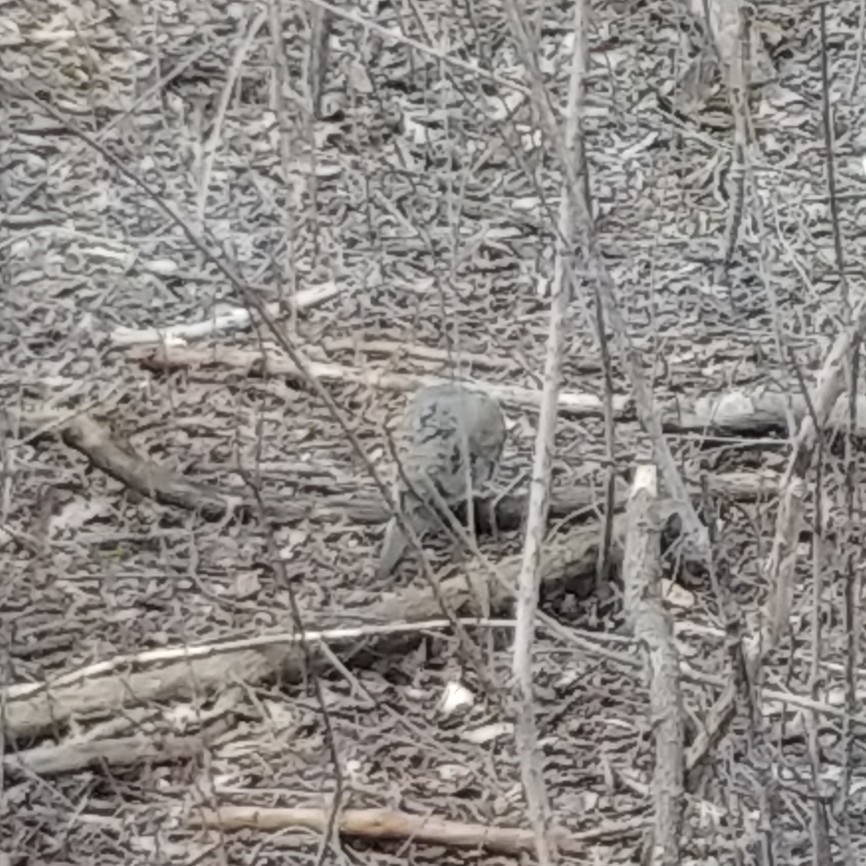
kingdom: Animalia
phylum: Chordata
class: Aves
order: Columbiformes
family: Columbidae
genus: Zenaida
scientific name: Zenaida macroura
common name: Mourning dove
